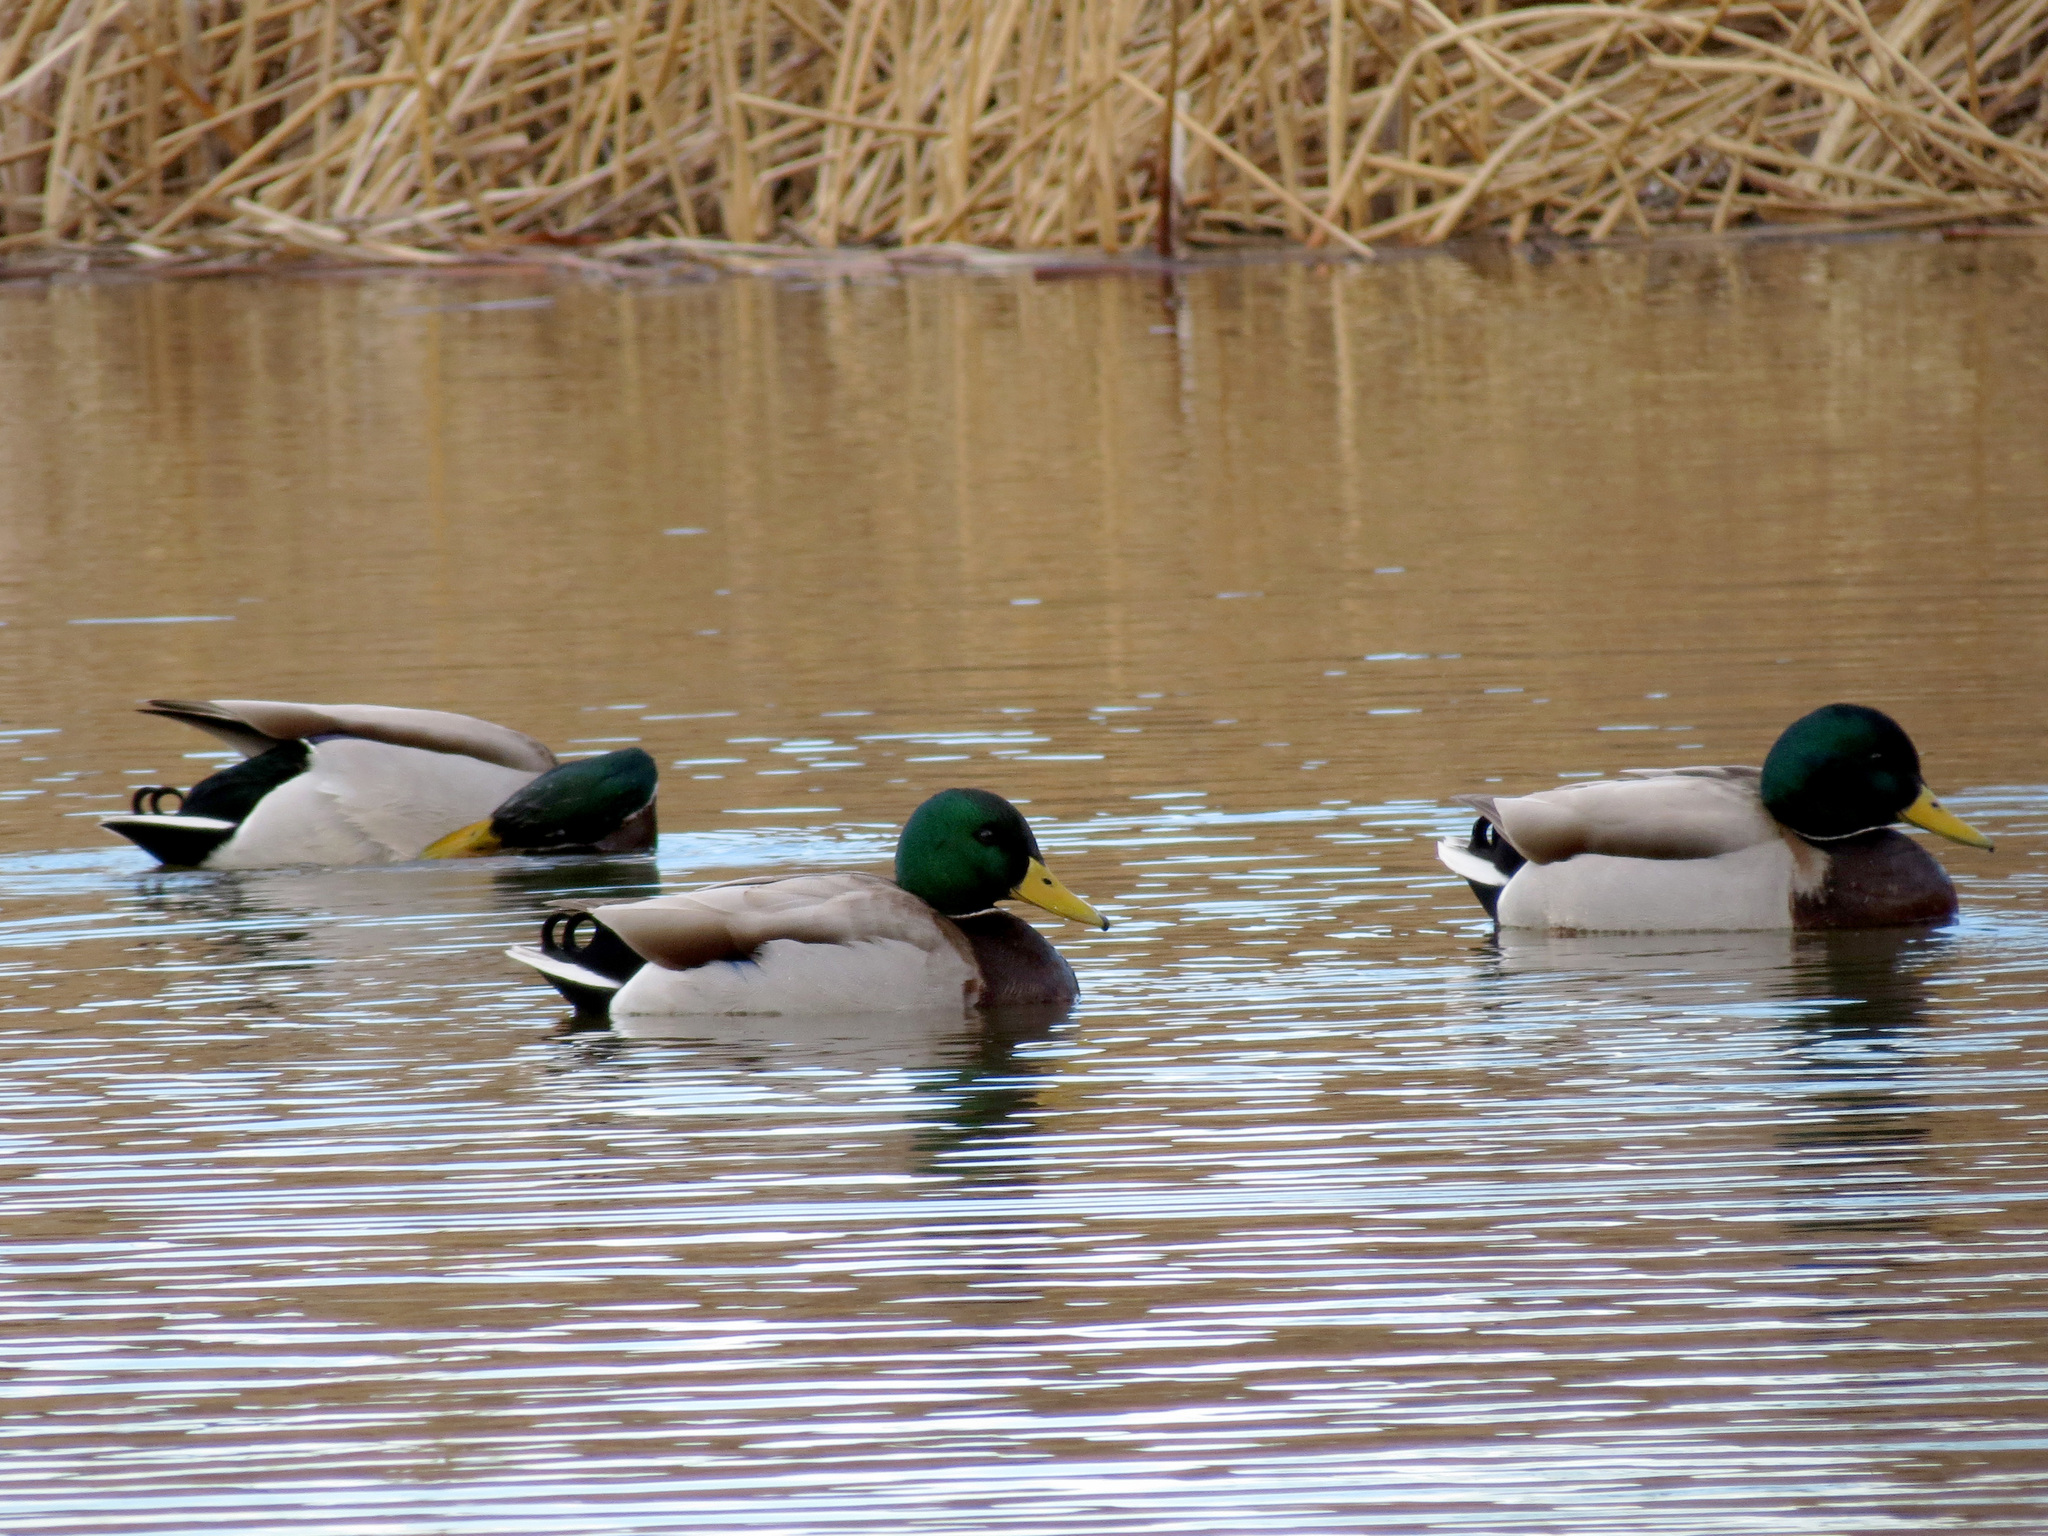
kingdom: Animalia
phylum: Chordata
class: Aves
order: Anseriformes
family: Anatidae
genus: Anas
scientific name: Anas platyrhynchos
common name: Mallard
